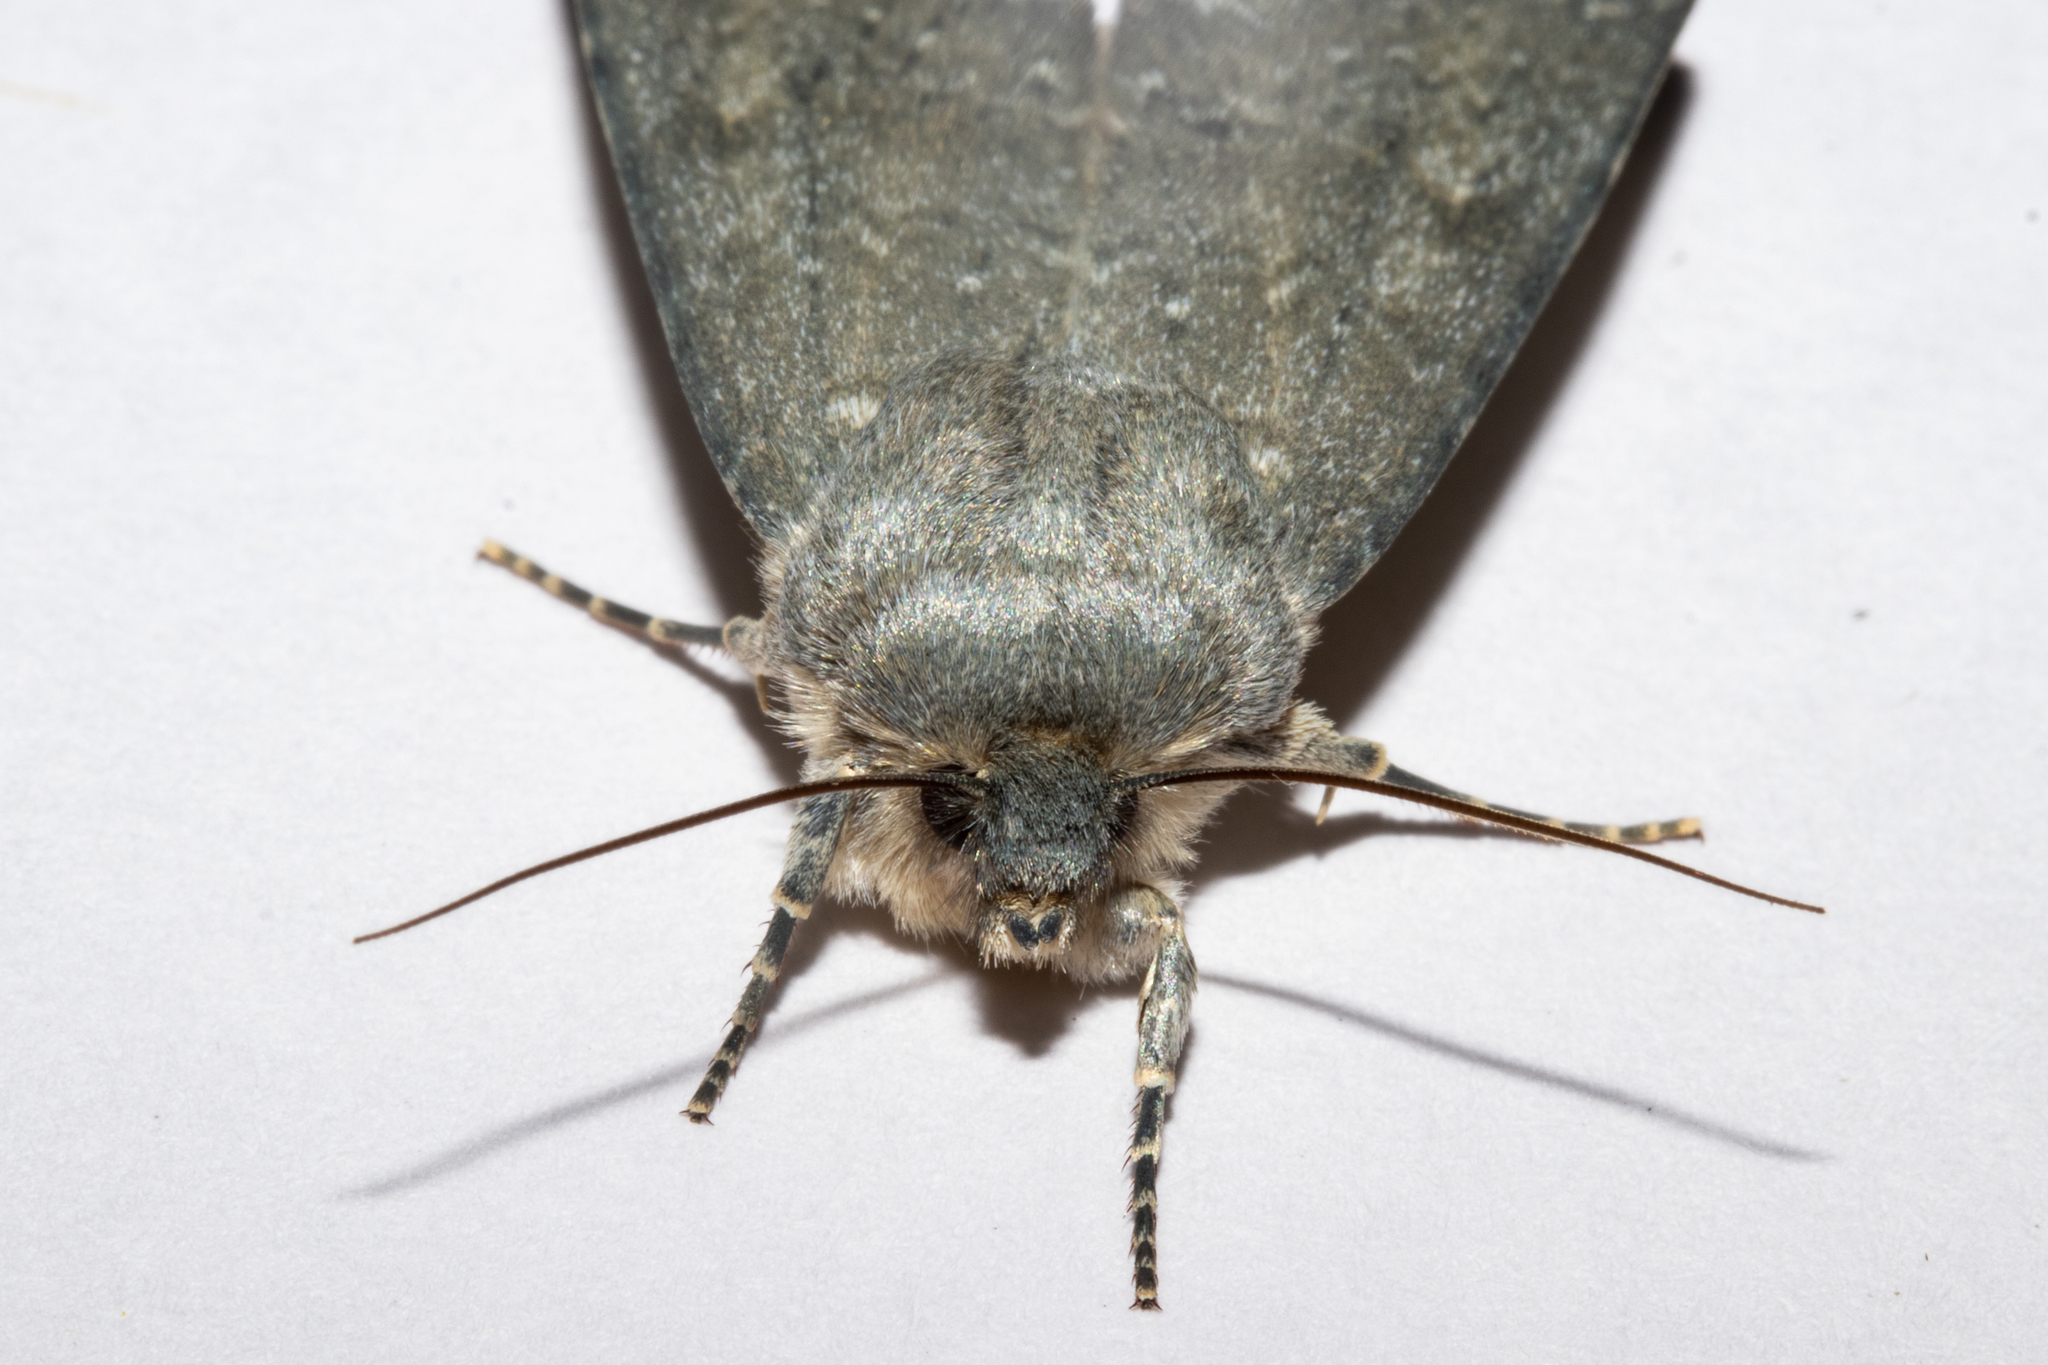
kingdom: Animalia
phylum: Arthropoda
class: Insecta
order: Lepidoptera
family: Noctuidae
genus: Physetica
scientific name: Physetica caerulea
